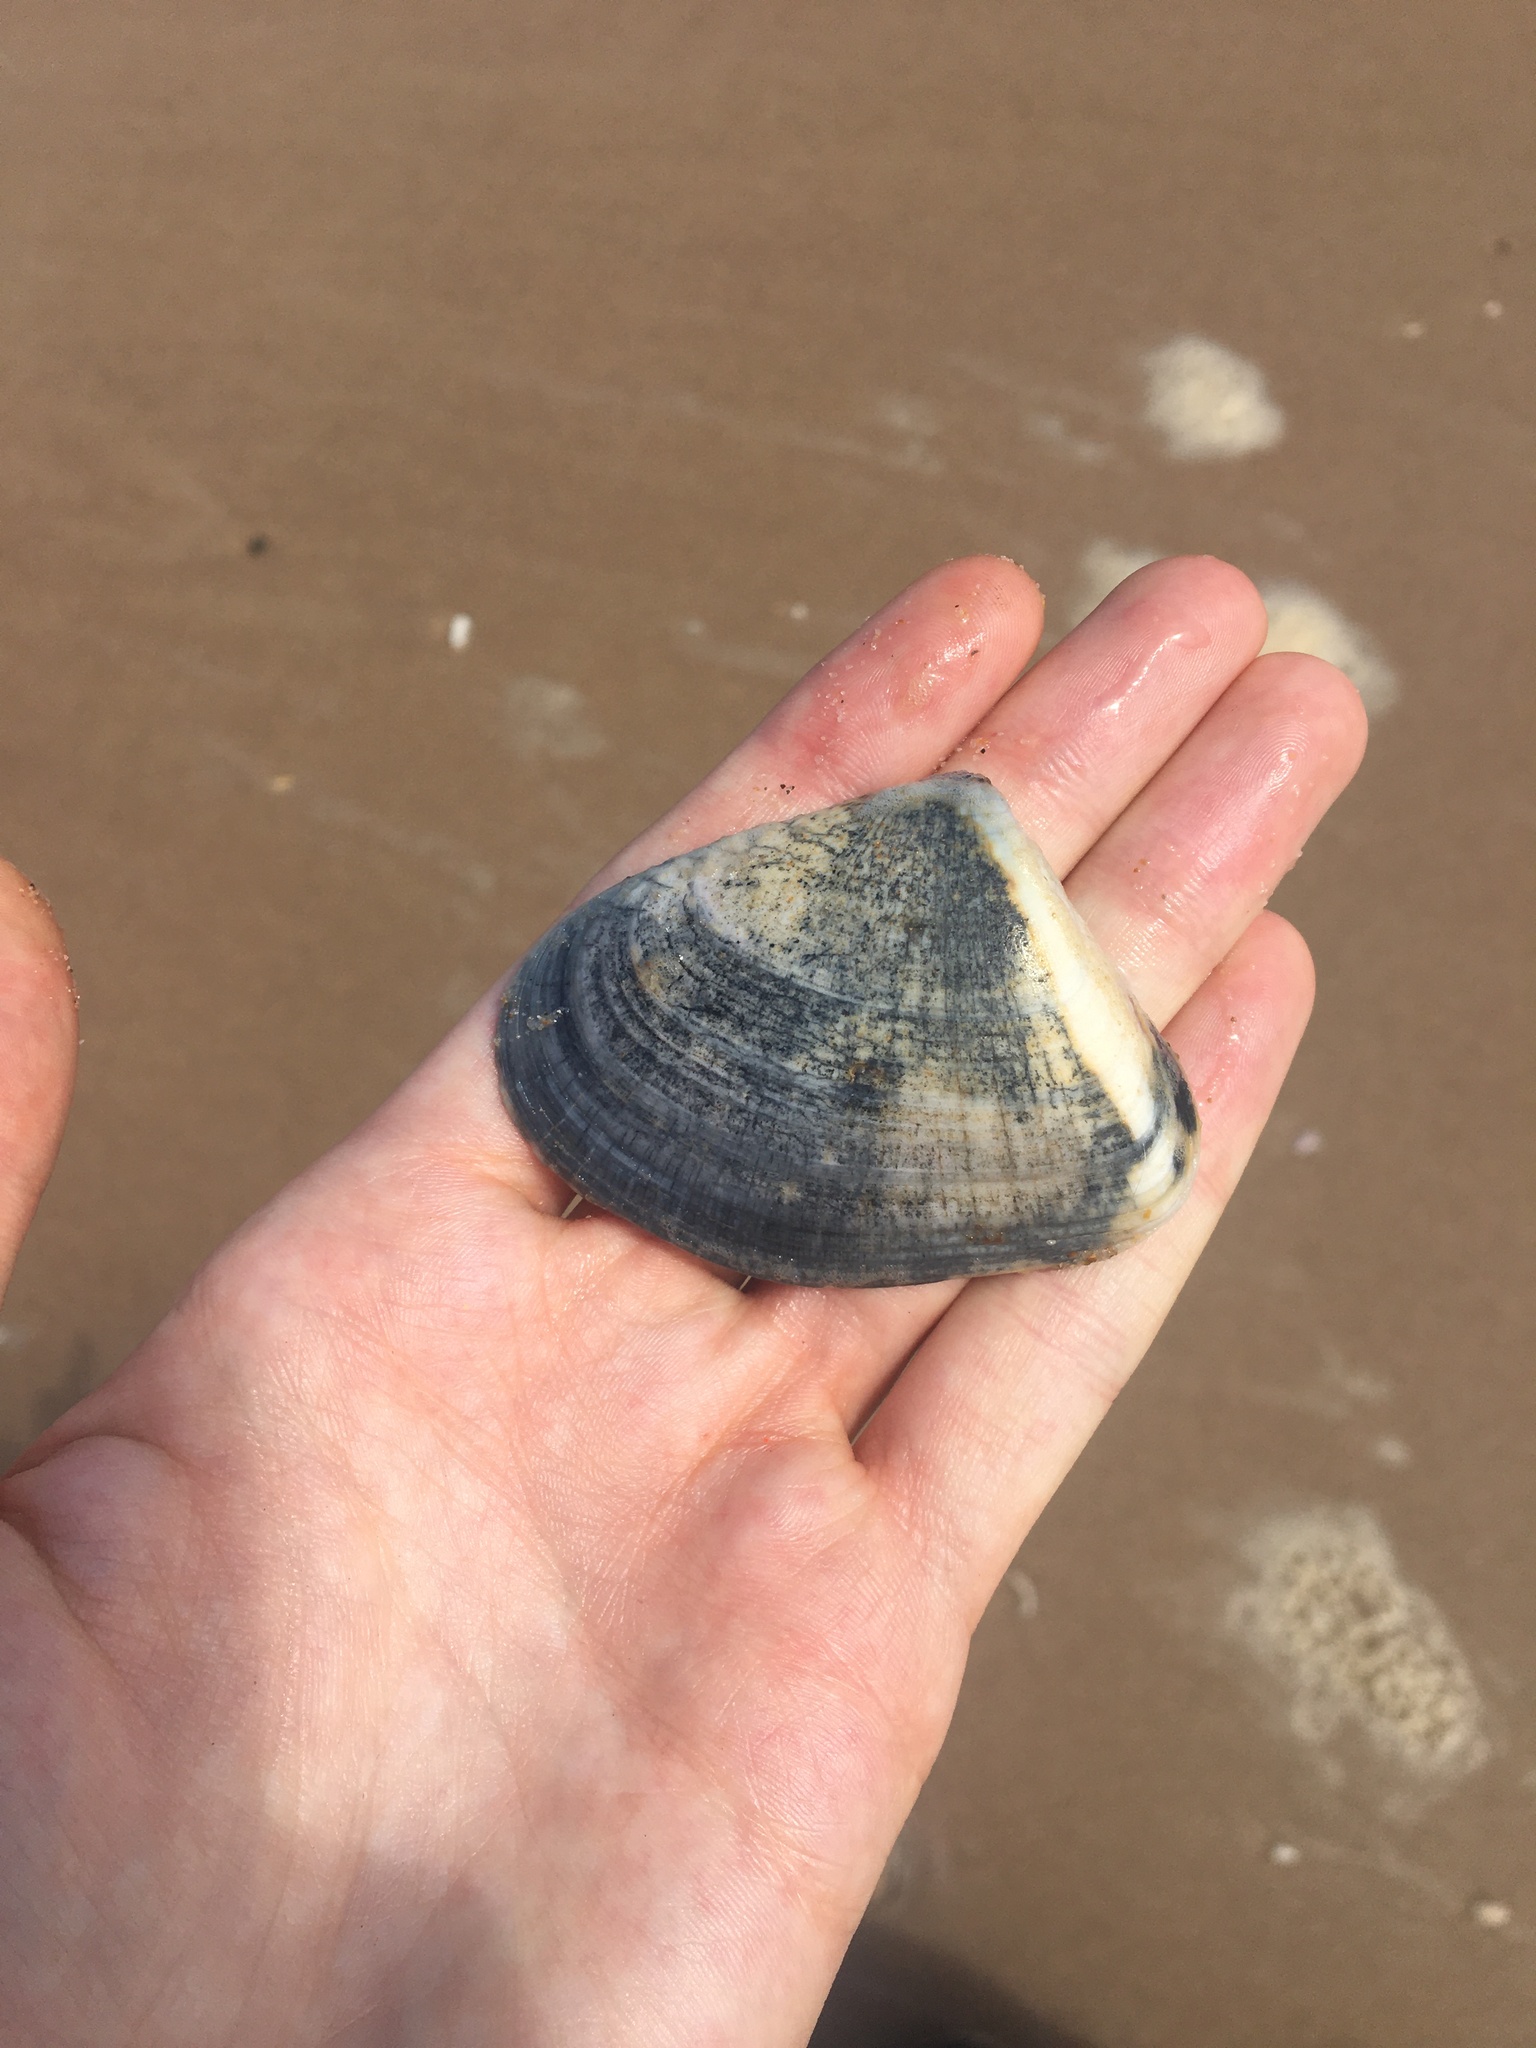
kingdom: Animalia
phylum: Mollusca
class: Bivalvia
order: Cardiida
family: Donacidae
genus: Latona
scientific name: Latona deltoides
